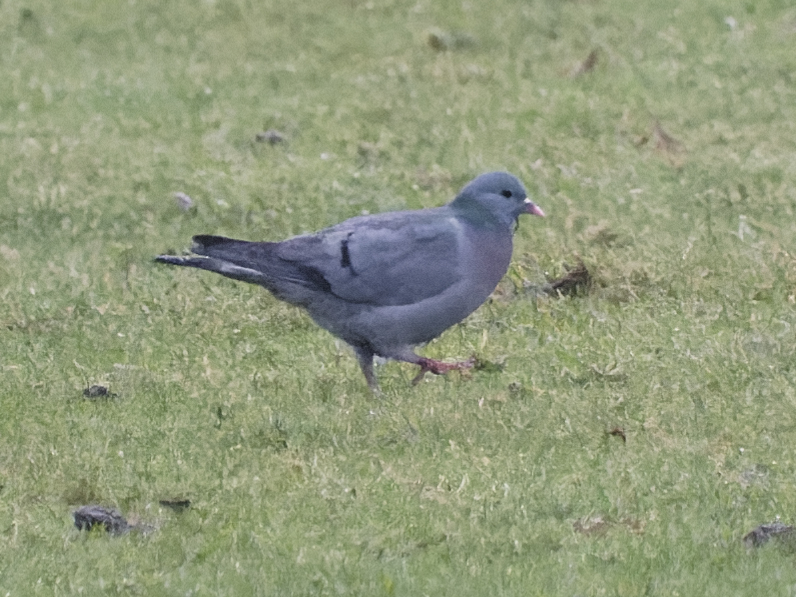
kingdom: Animalia
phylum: Chordata
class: Aves
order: Columbiformes
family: Columbidae
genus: Columba
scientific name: Columba oenas
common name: Stock dove
